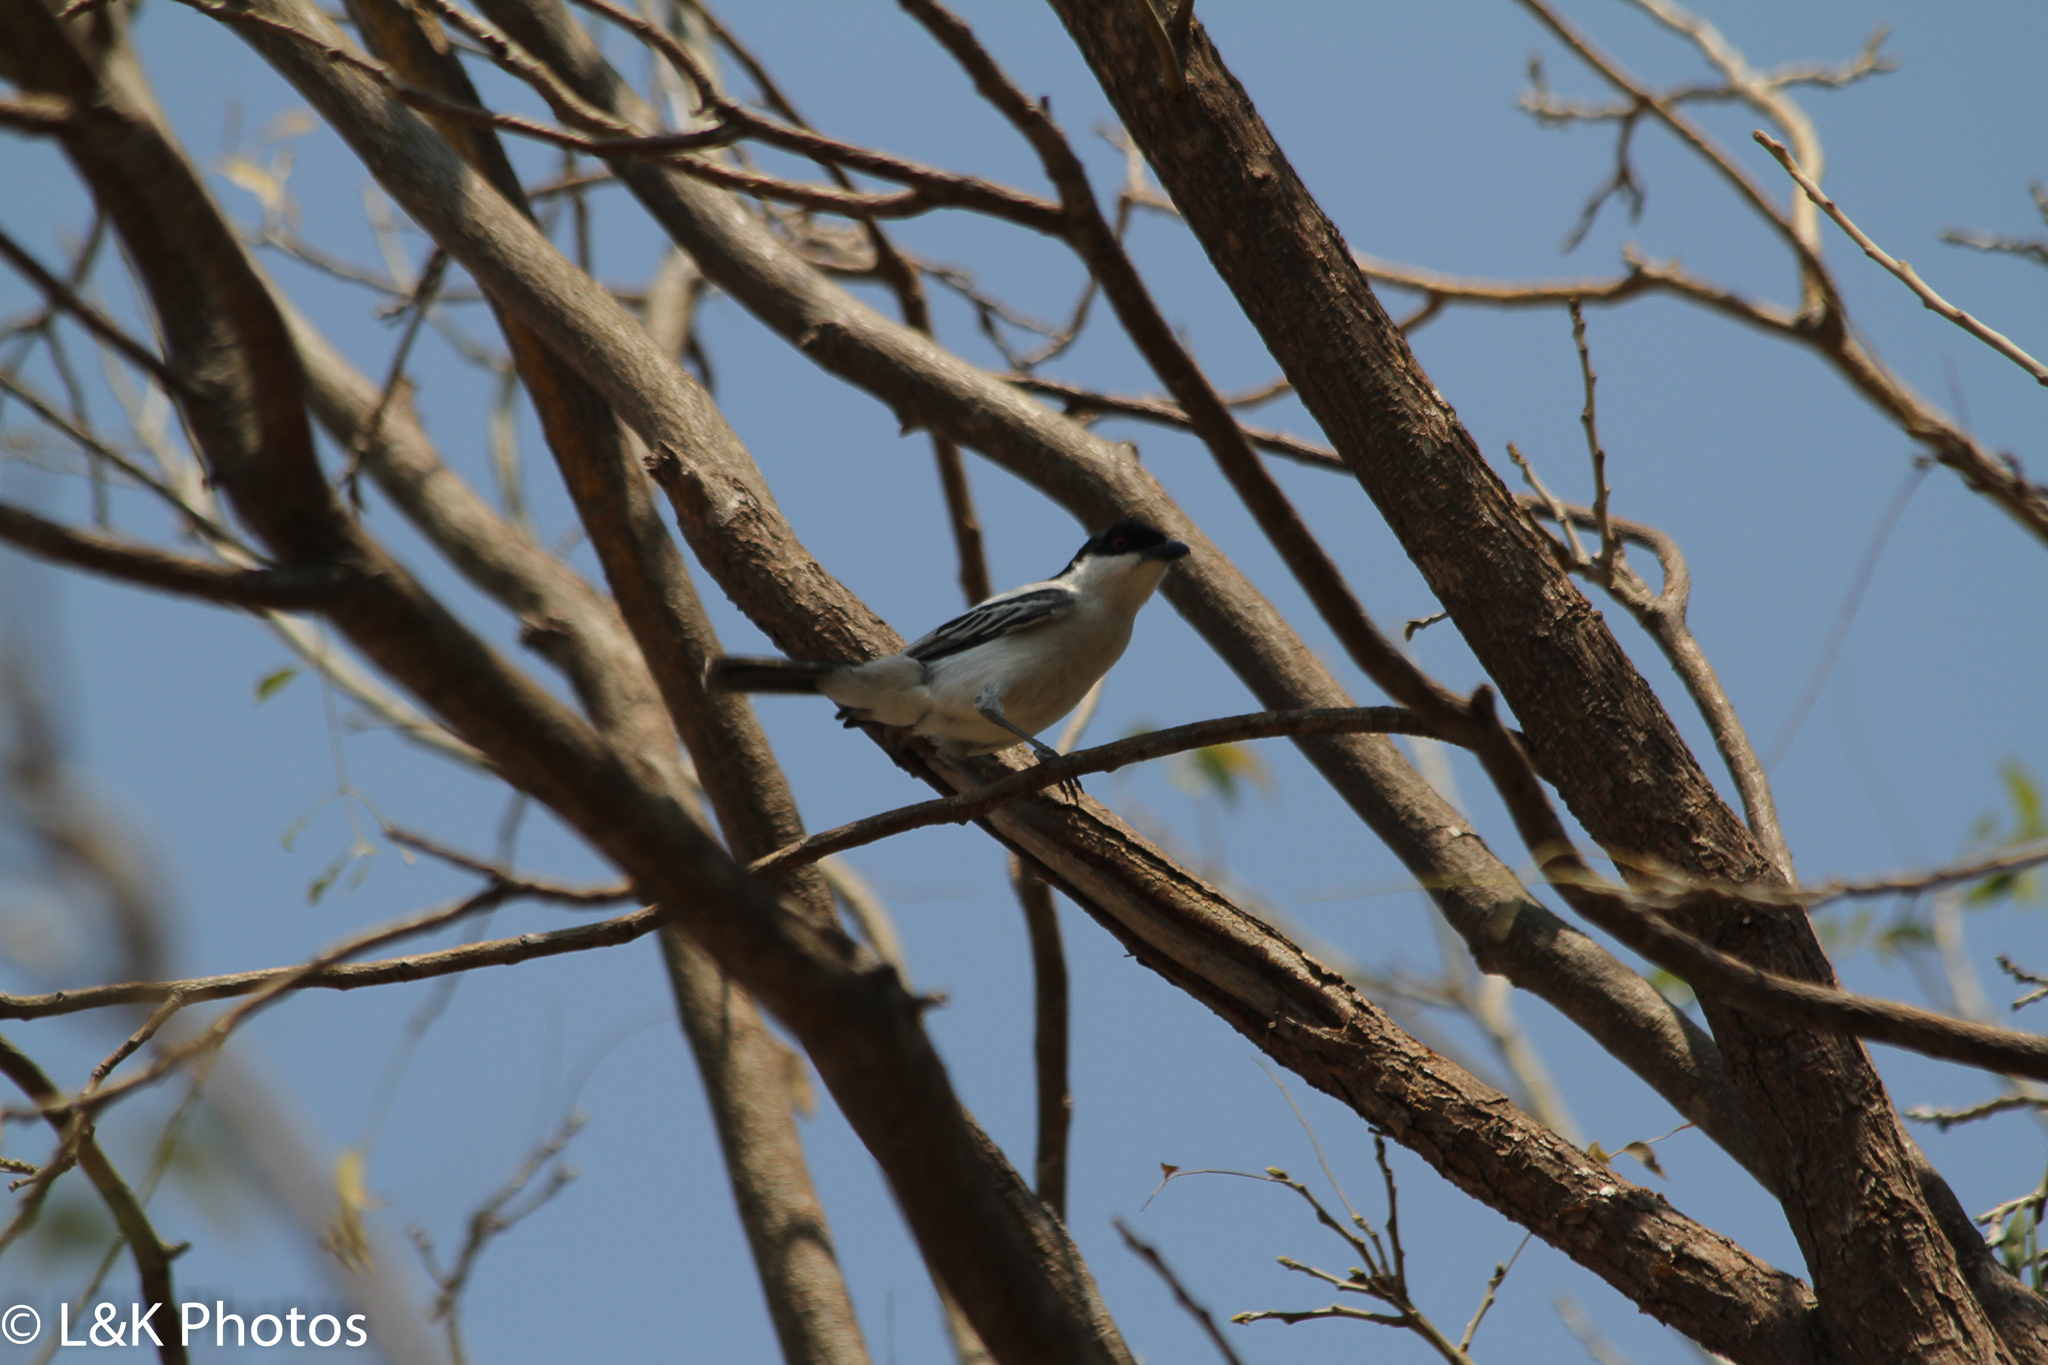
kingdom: Animalia
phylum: Chordata
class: Aves
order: Passeriformes
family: Malaconotidae
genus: Dryoscopus
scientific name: Dryoscopus cubla
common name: Black-backed puffback
